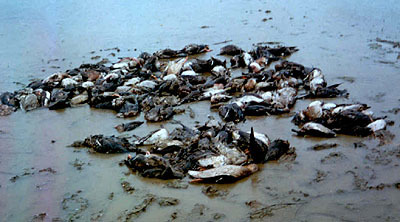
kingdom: Animalia
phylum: Chordata
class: Aves
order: Anseriformes
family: Anatidae
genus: Sibirionetta
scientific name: Sibirionetta formosa
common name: Baikal teal
